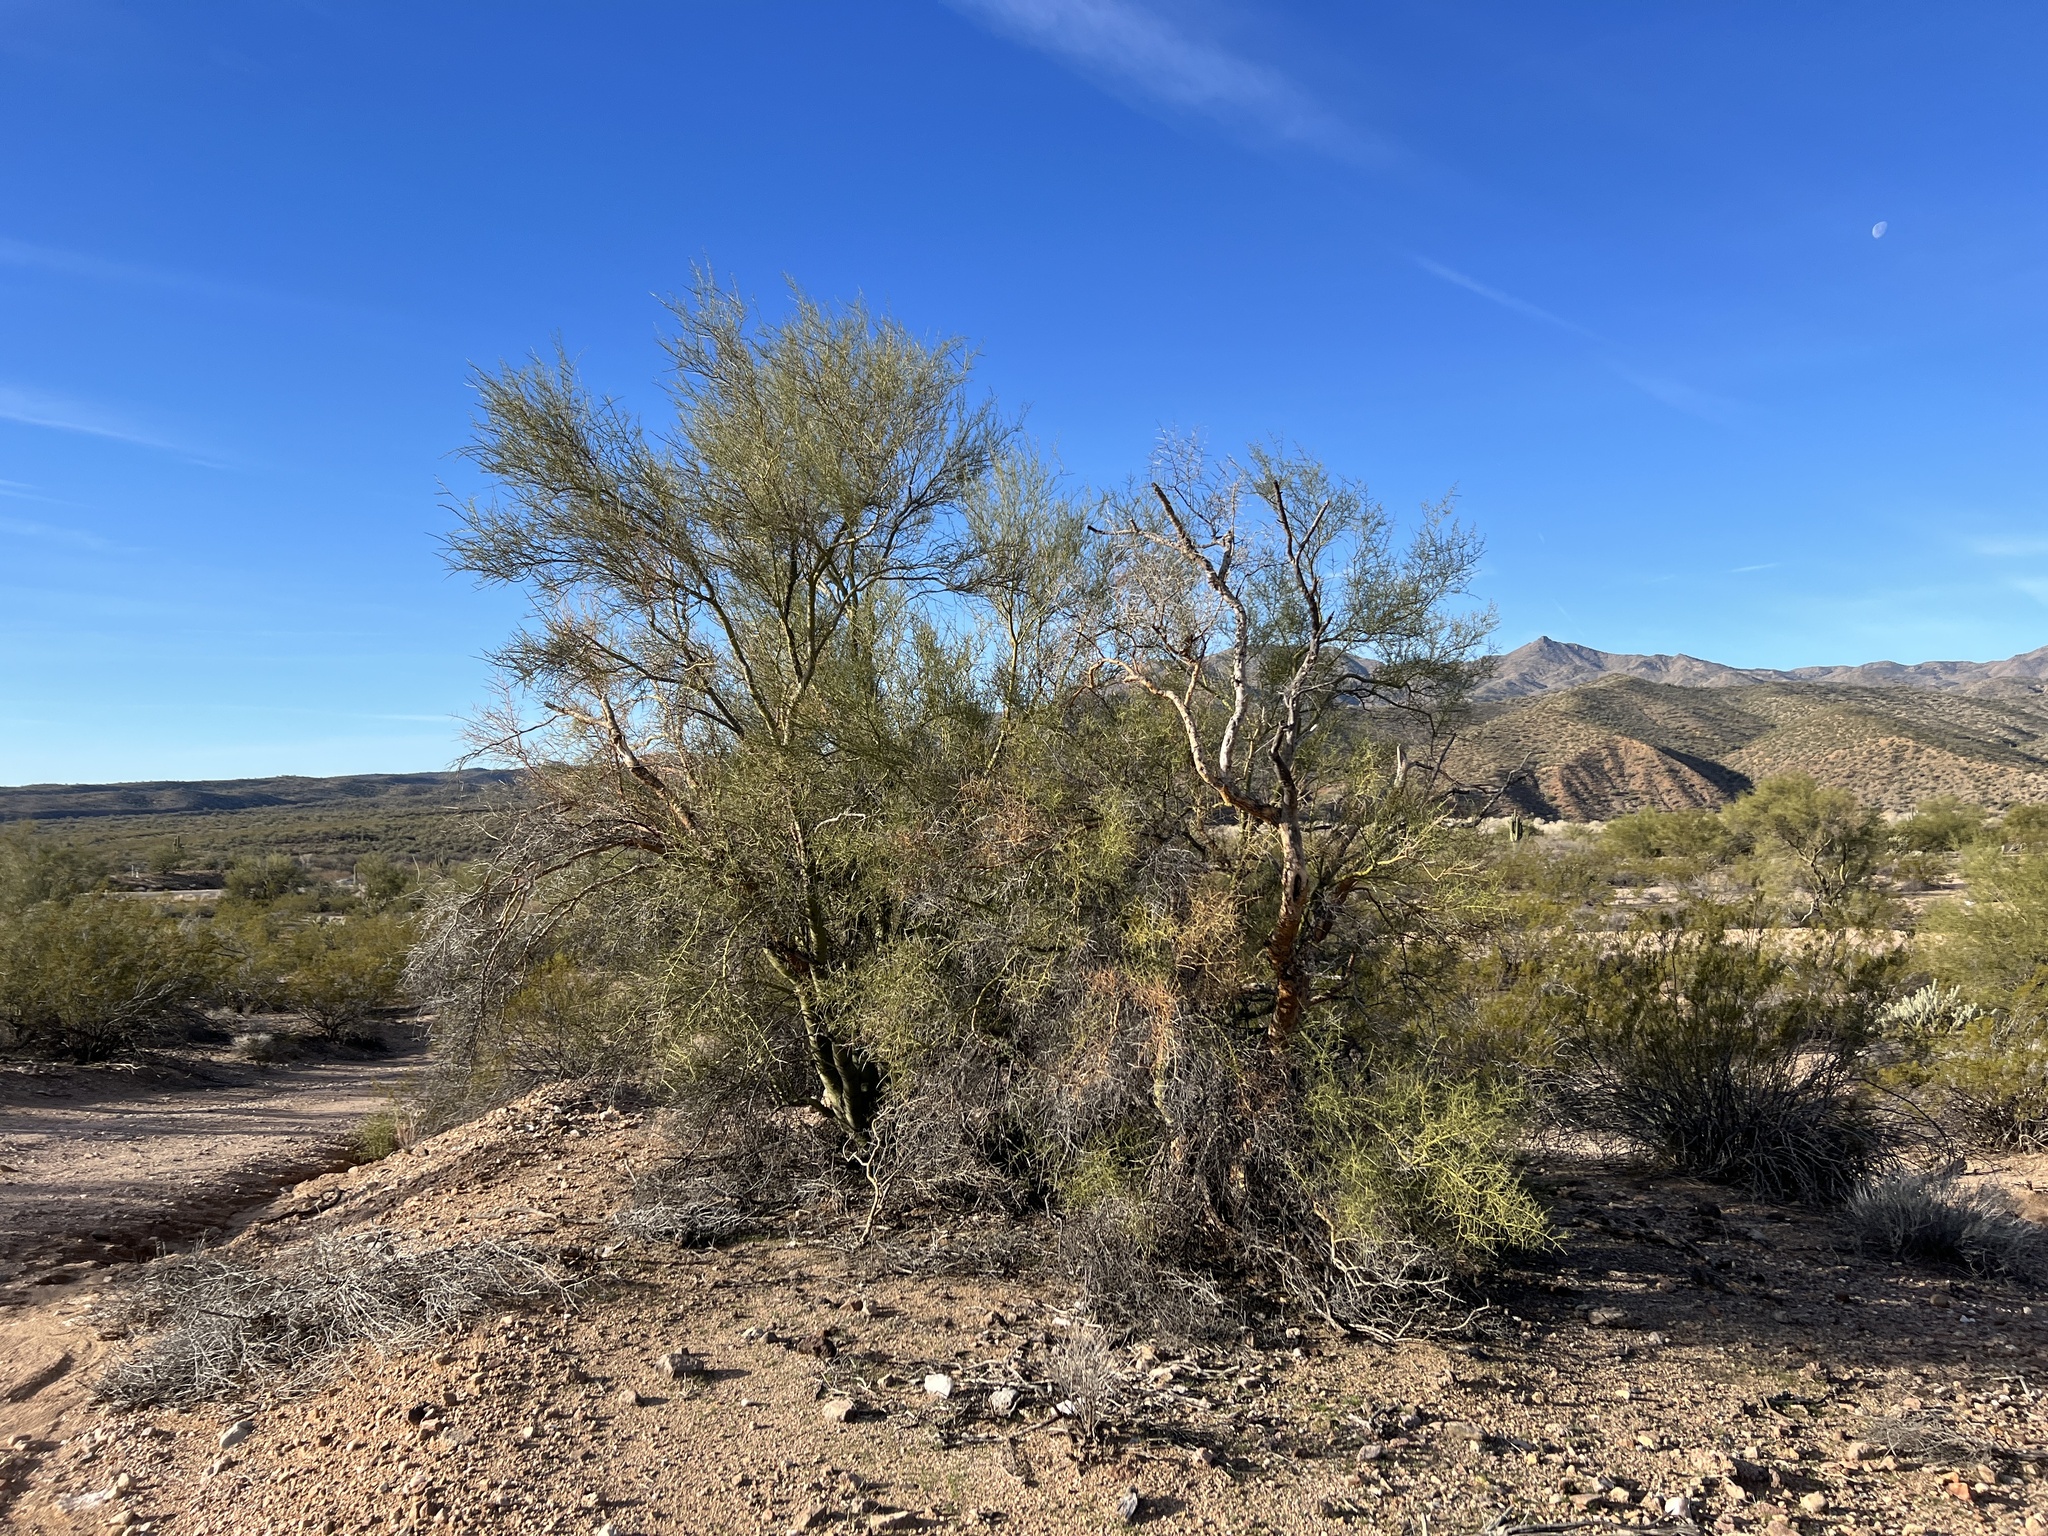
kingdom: Plantae
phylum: Tracheophyta
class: Magnoliopsida
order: Fabales
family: Fabaceae
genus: Parkinsonia
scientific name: Parkinsonia microphylla
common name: Yellow paloverde
